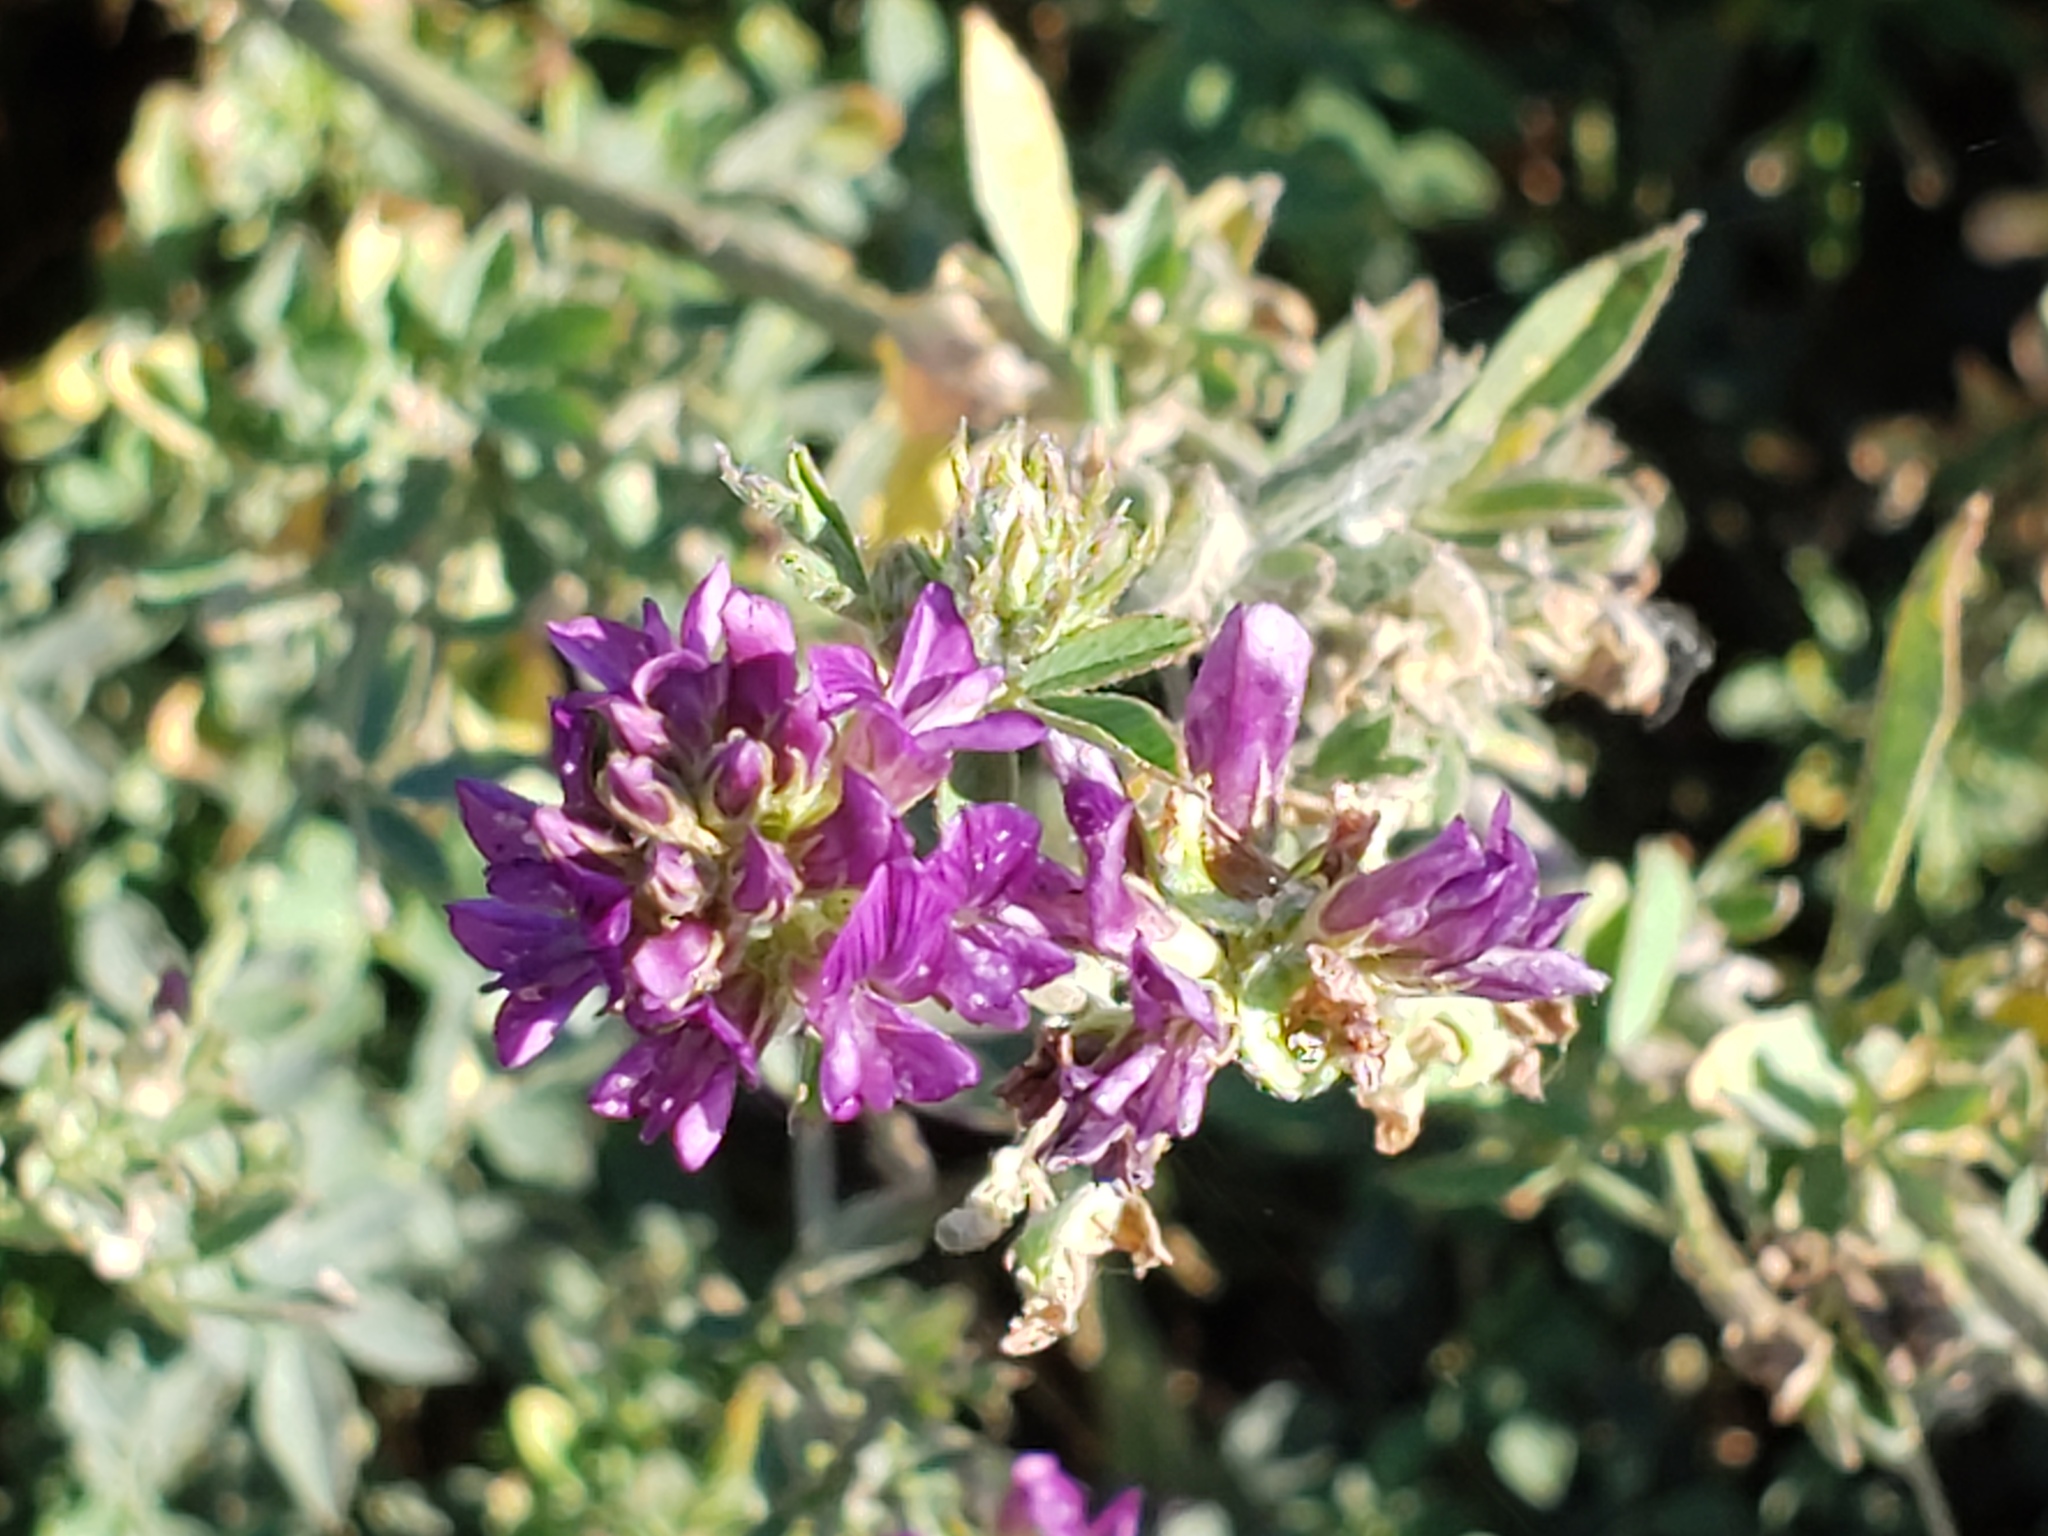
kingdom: Plantae
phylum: Tracheophyta
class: Magnoliopsida
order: Fabales
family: Fabaceae
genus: Medicago
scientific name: Medicago sativa
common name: Alfalfa
